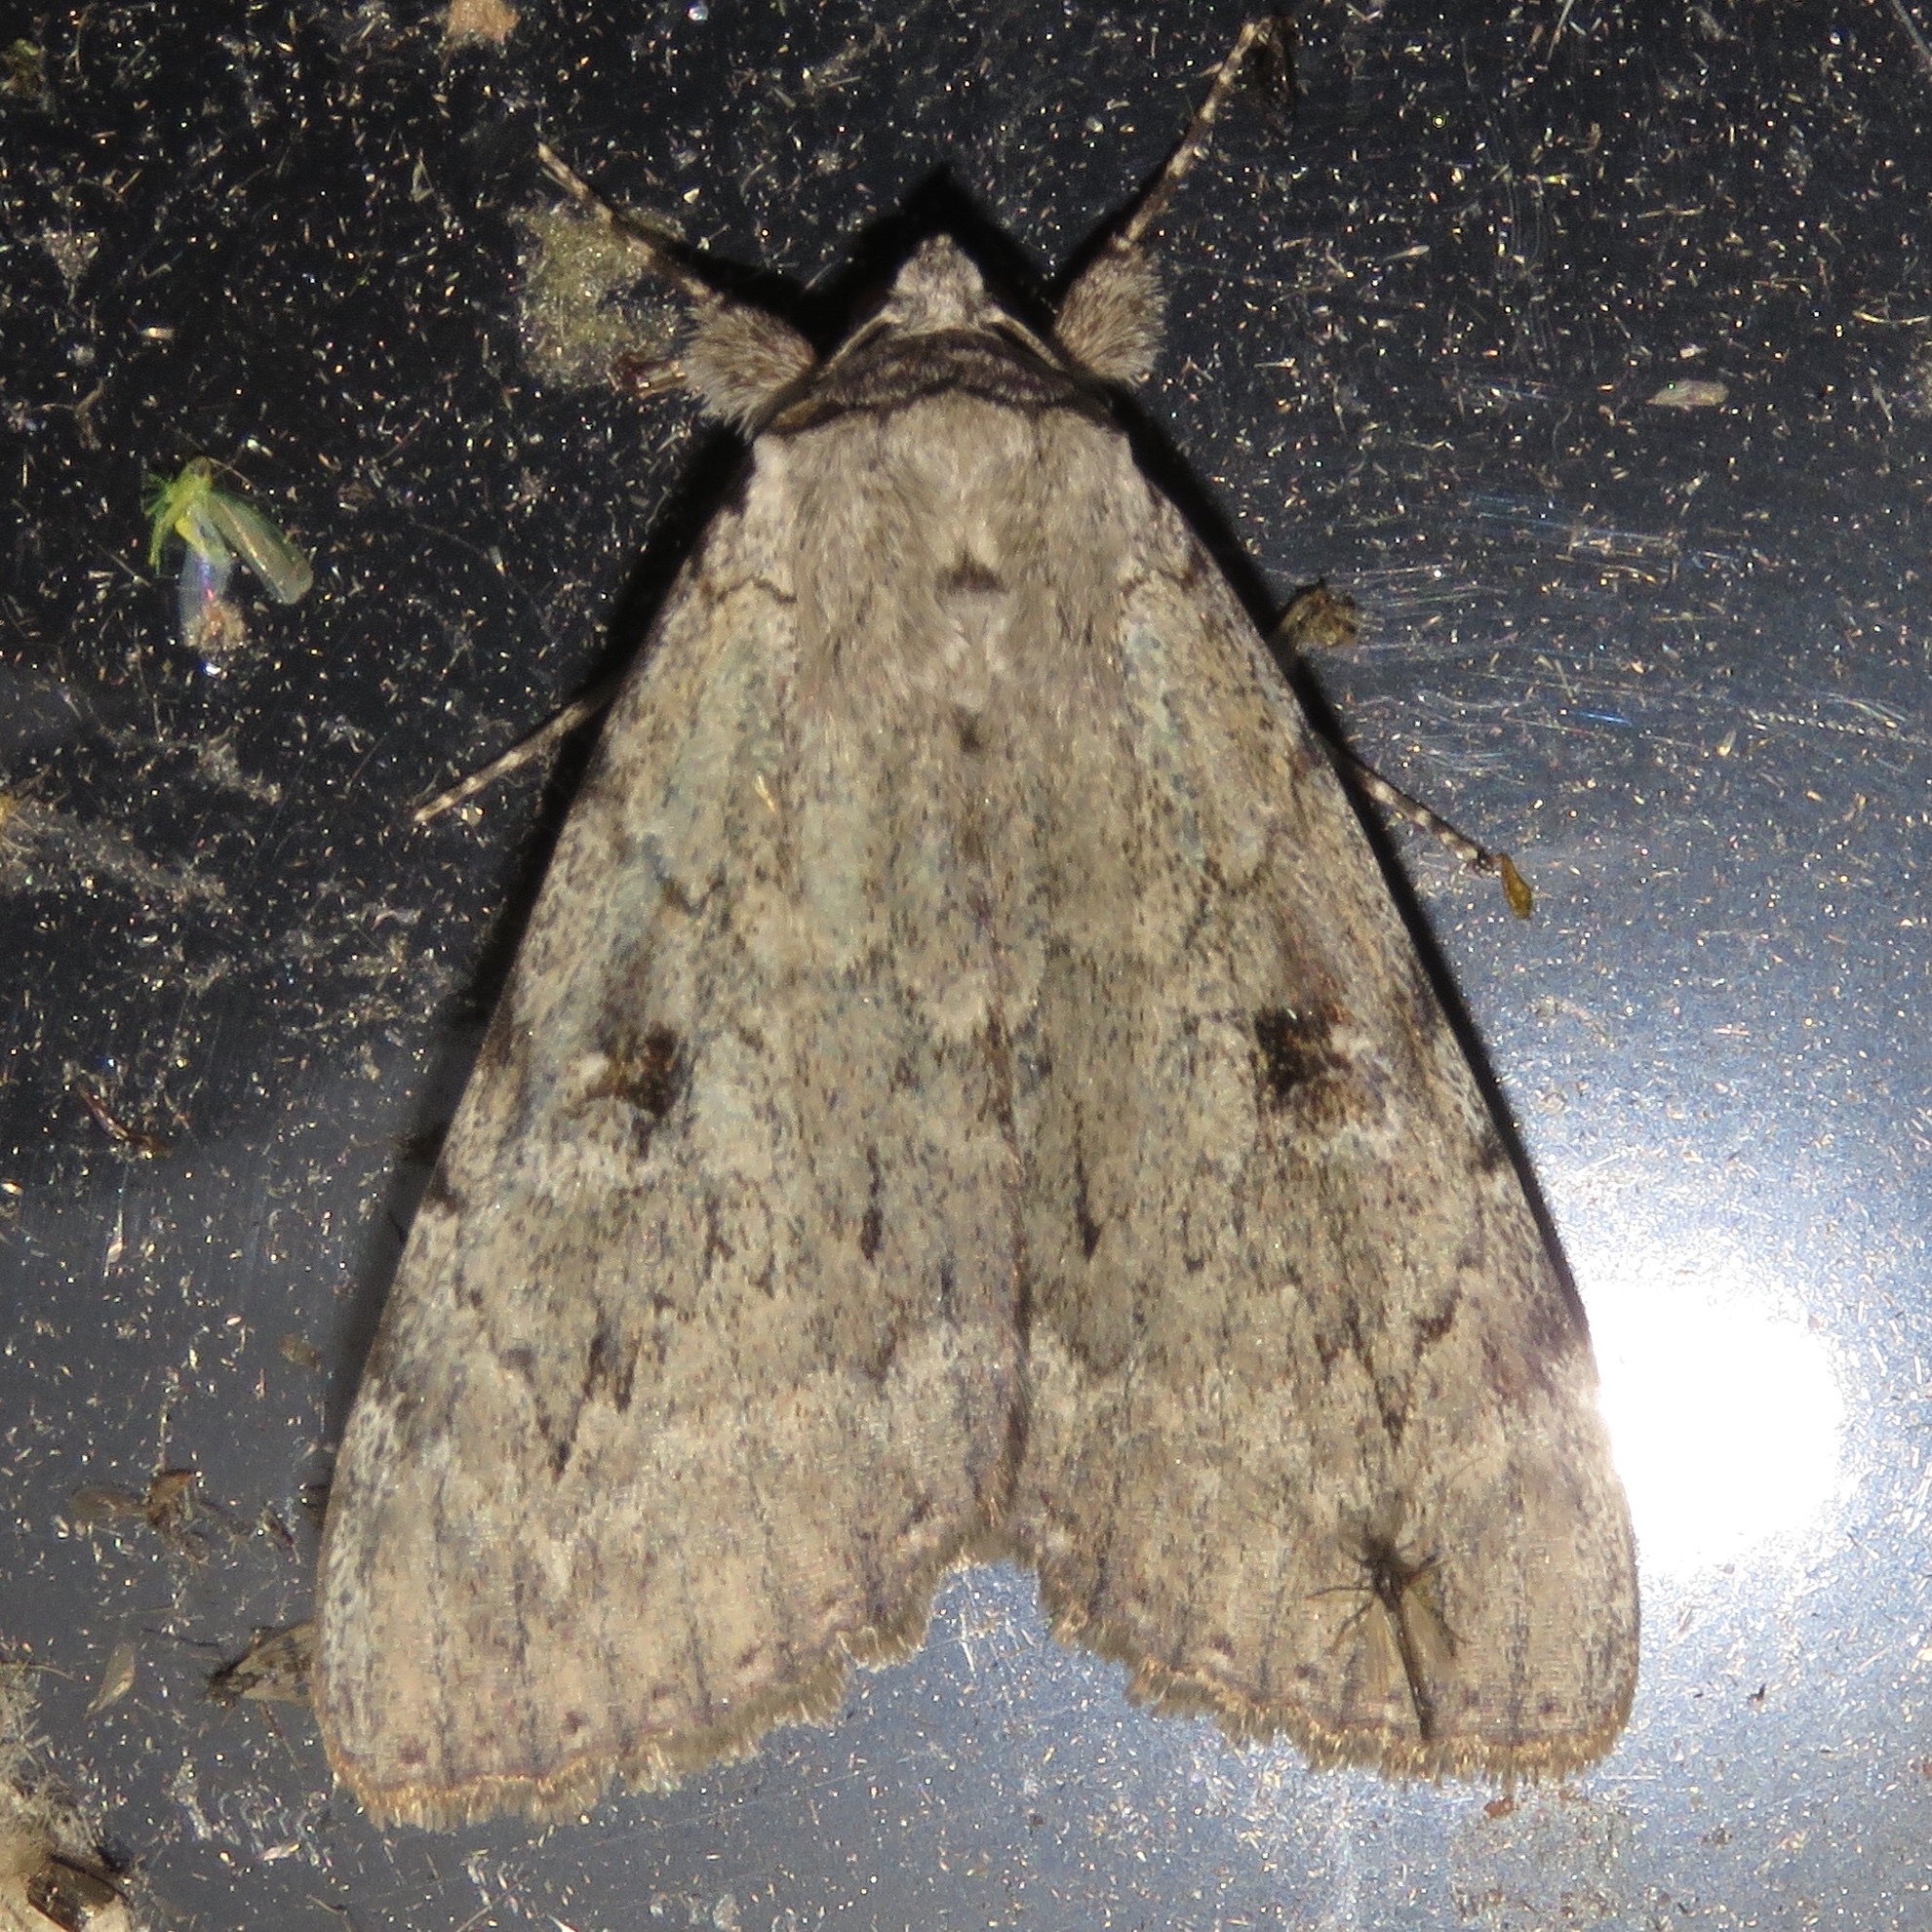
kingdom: Animalia
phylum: Arthropoda
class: Insecta
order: Lepidoptera
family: Erebidae
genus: Catocala
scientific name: Catocala judith
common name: Judith's underwing
